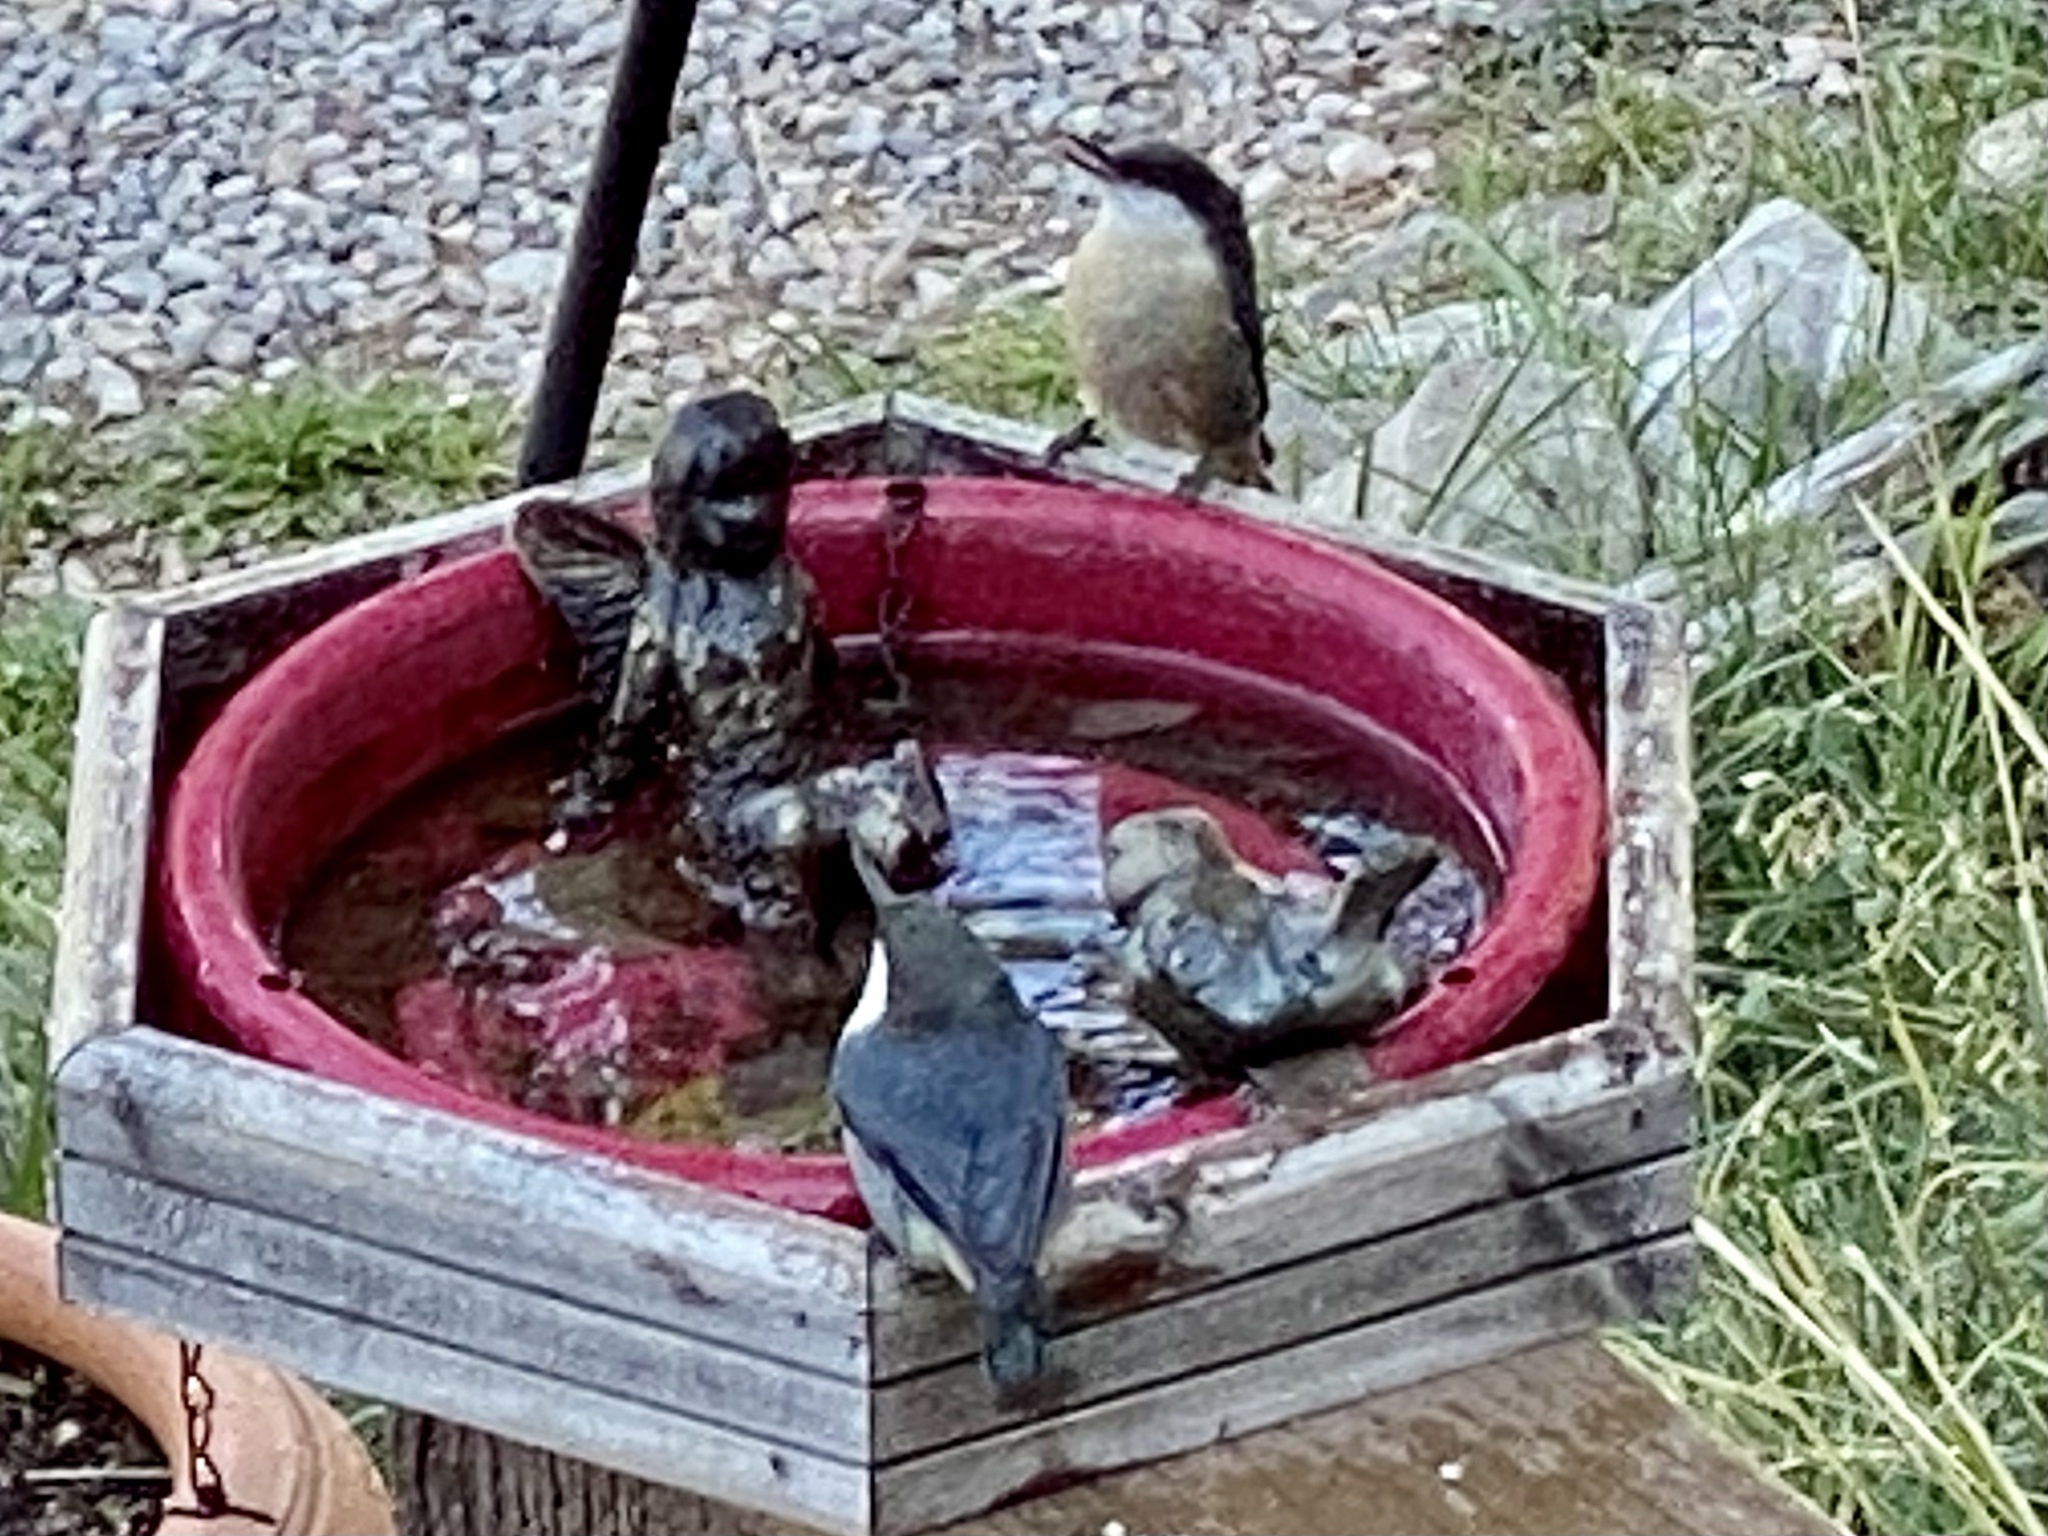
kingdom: Animalia
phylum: Chordata
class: Aves
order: Passeriformes
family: Sittidae
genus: Sitta
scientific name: Sitta pygmaea
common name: Pygmy nuthatch
